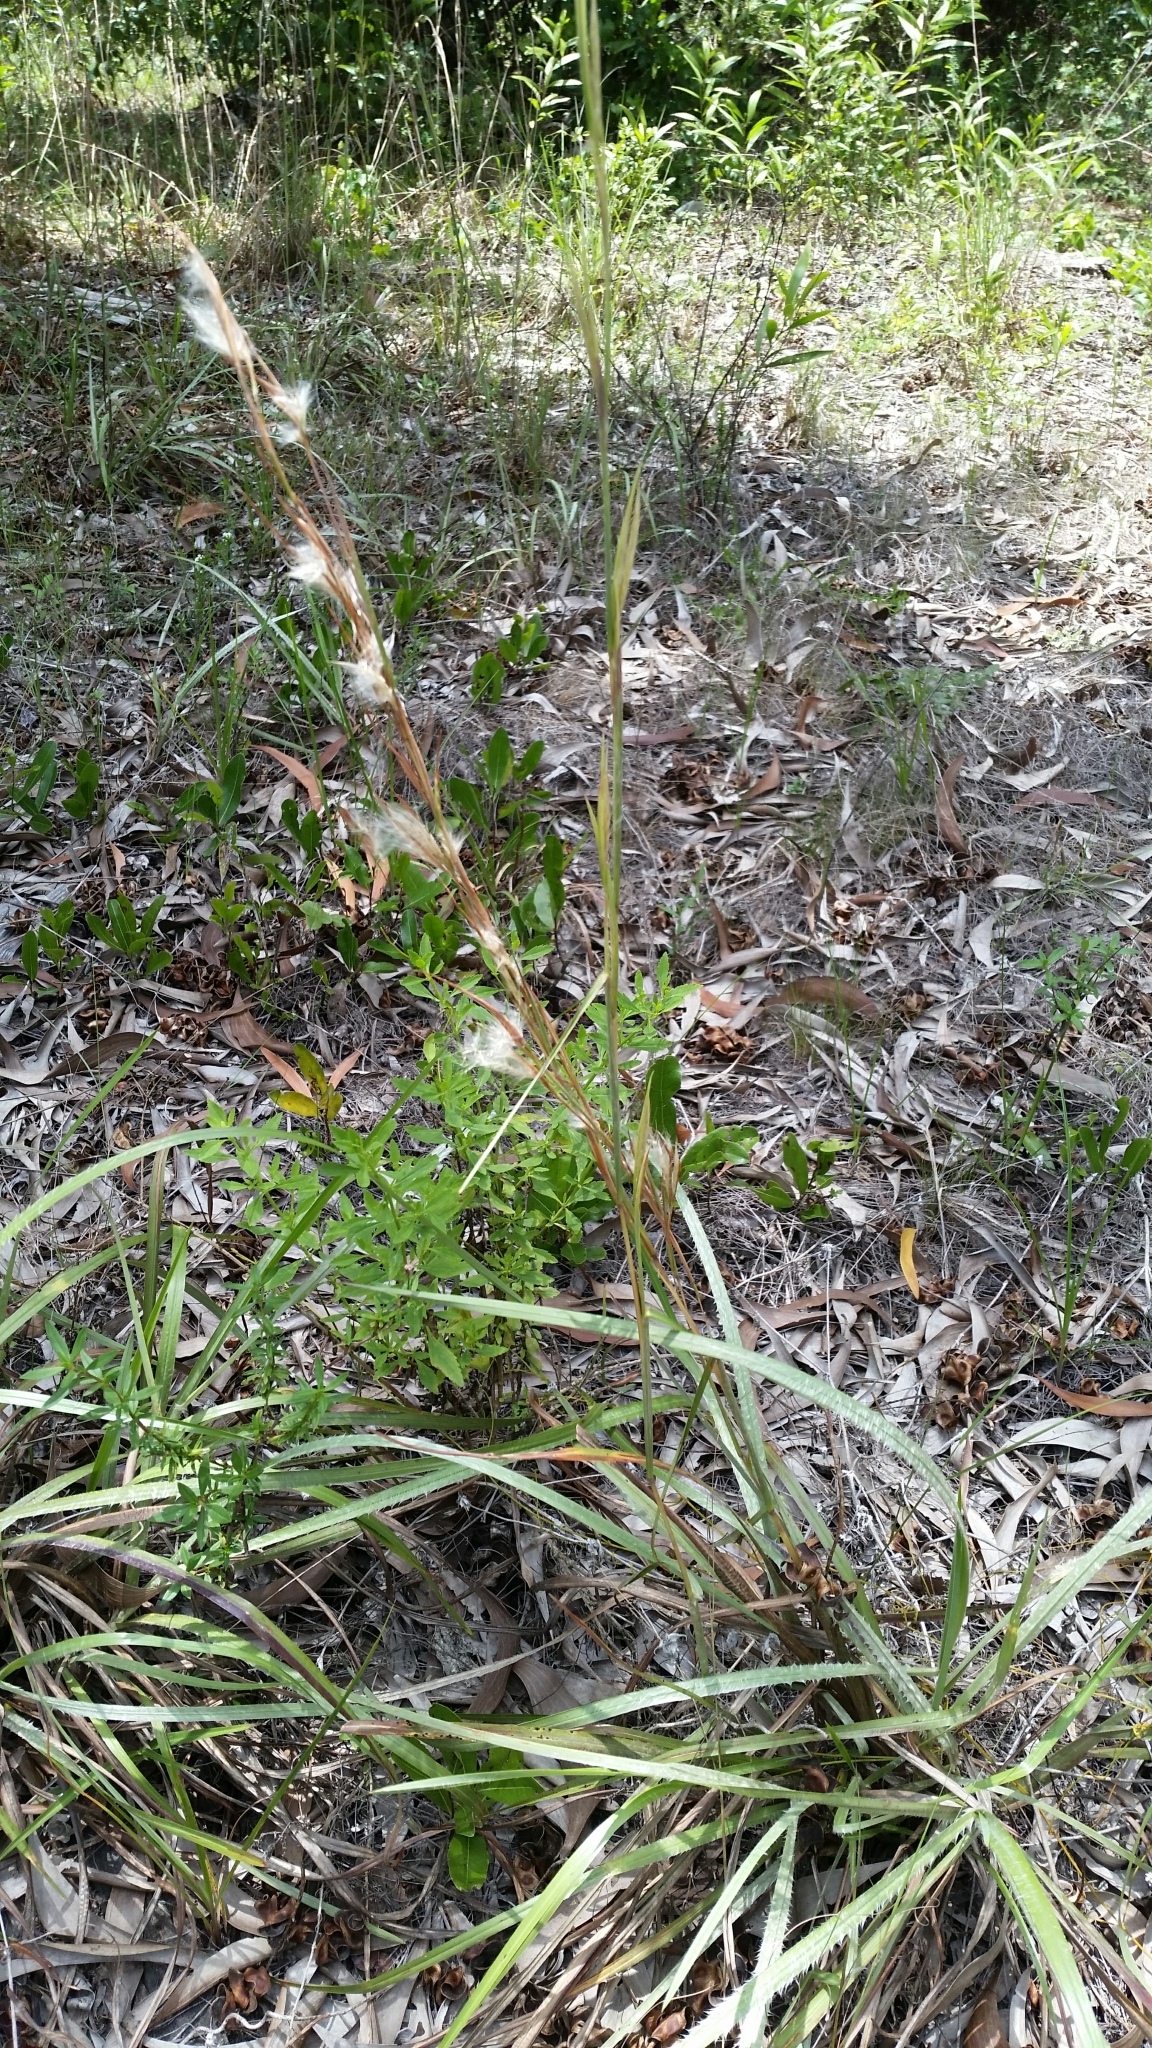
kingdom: Plantae
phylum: Tracheophyta
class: Liliopsida
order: Poales
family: Poaceae
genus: Andropogon
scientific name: Andropogon longiberbis
